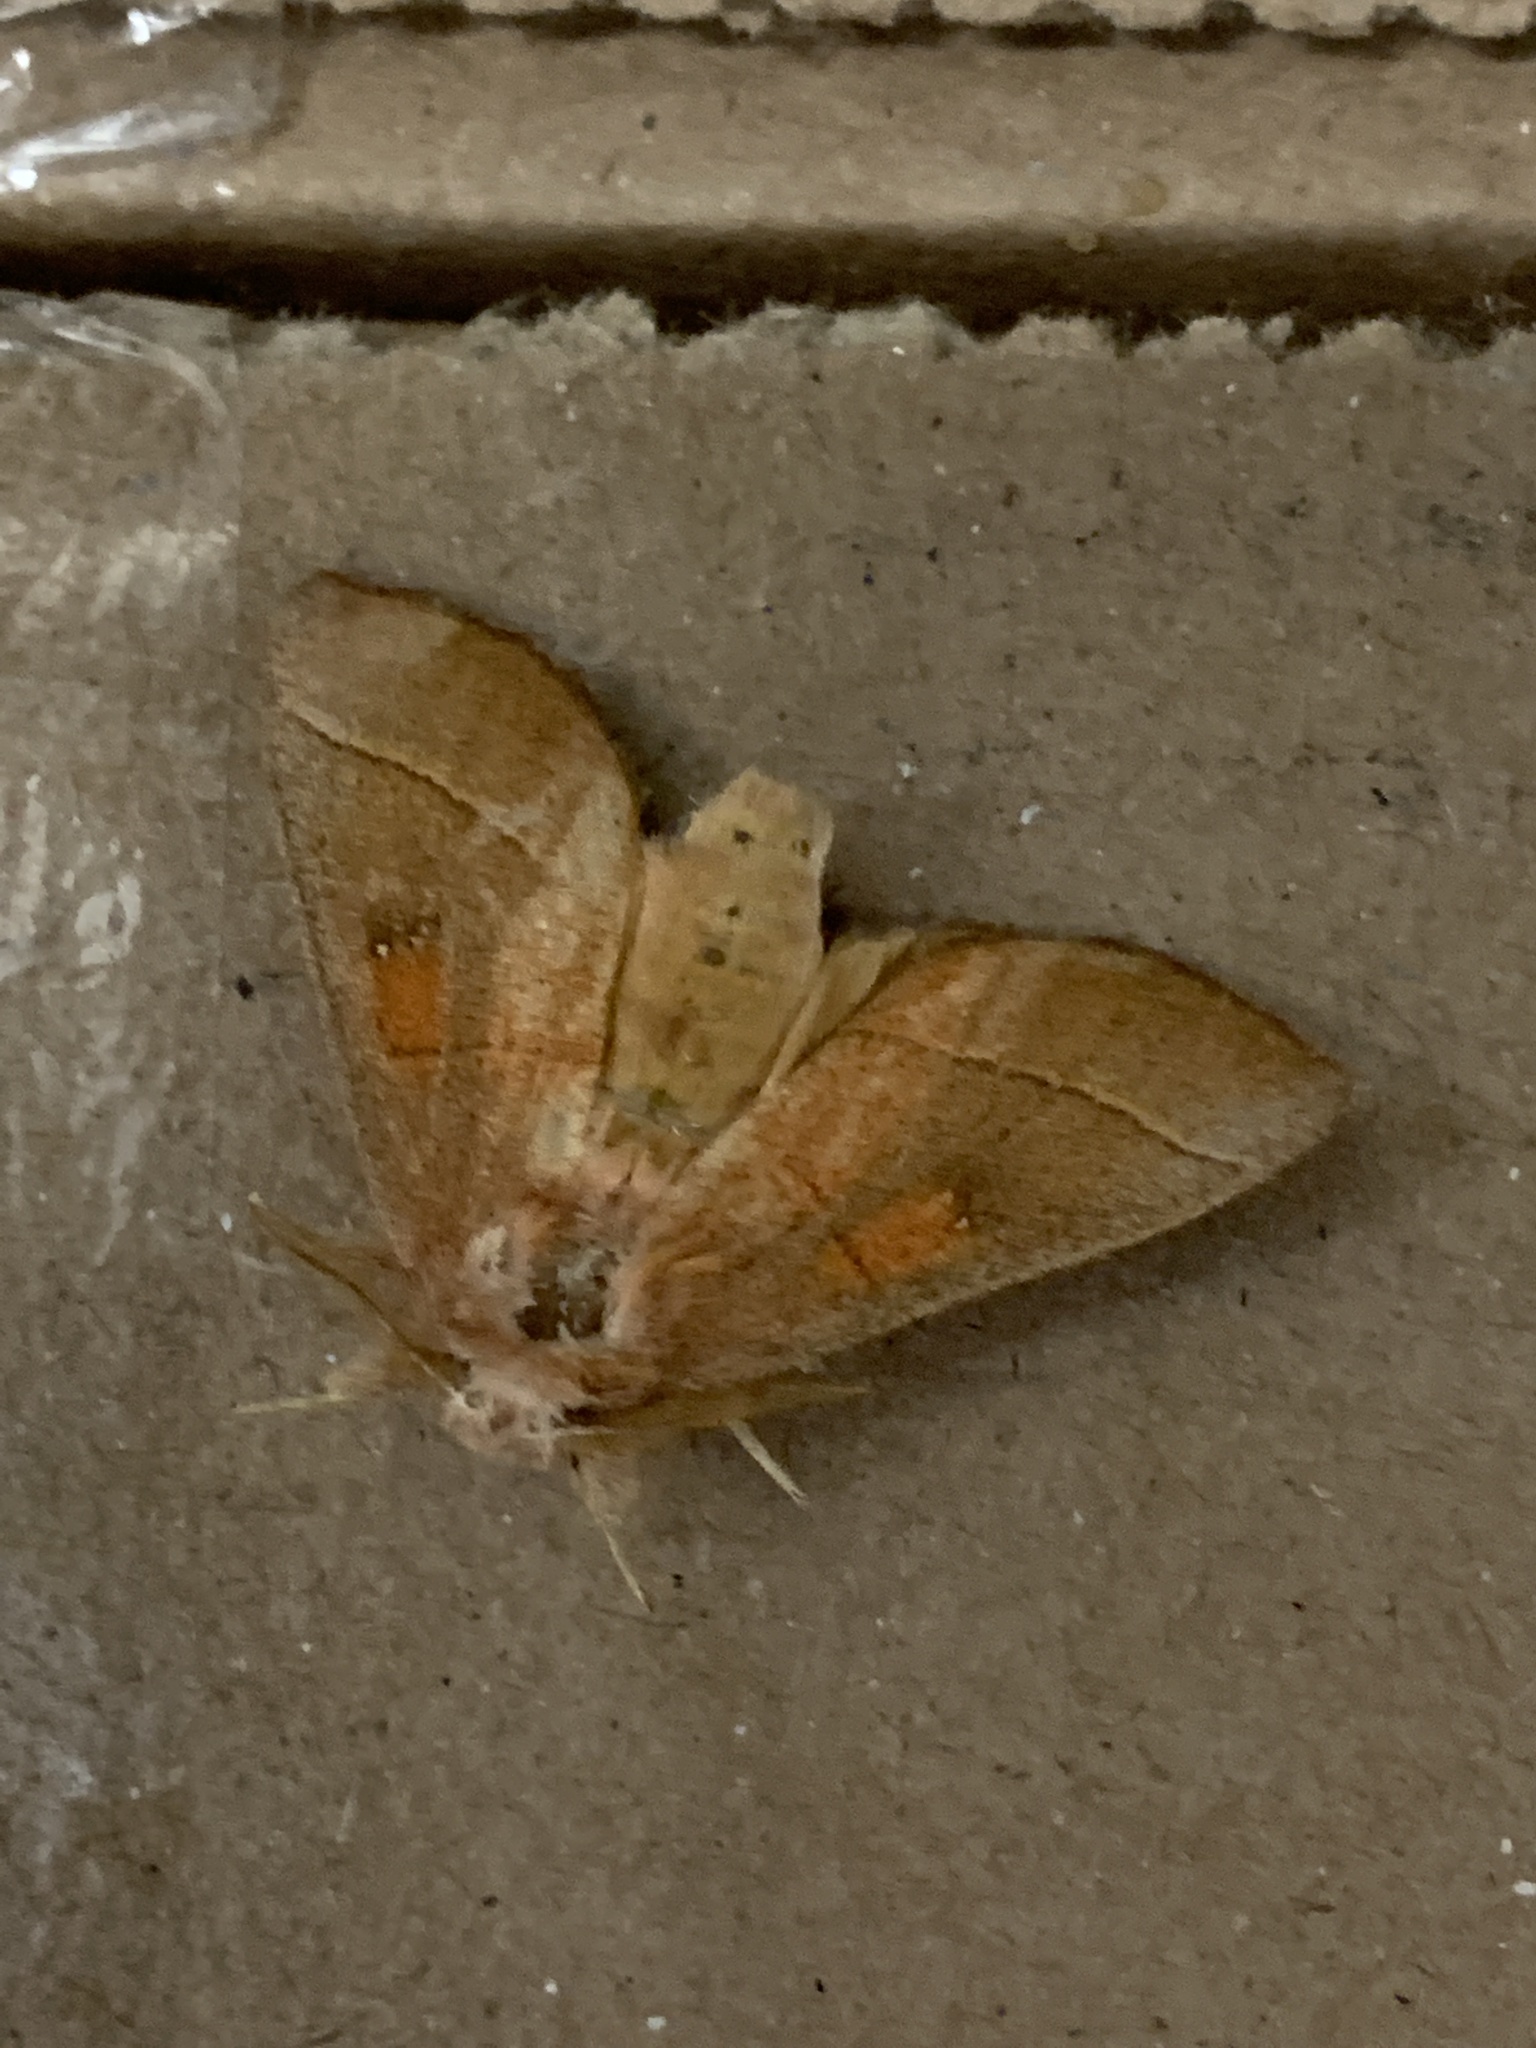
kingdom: Animalia
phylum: Arthropoda
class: Insecta
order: Lepidoptera
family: Notodontidae
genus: Nadata
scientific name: Nadata gibbosa
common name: White-dotted prominent
